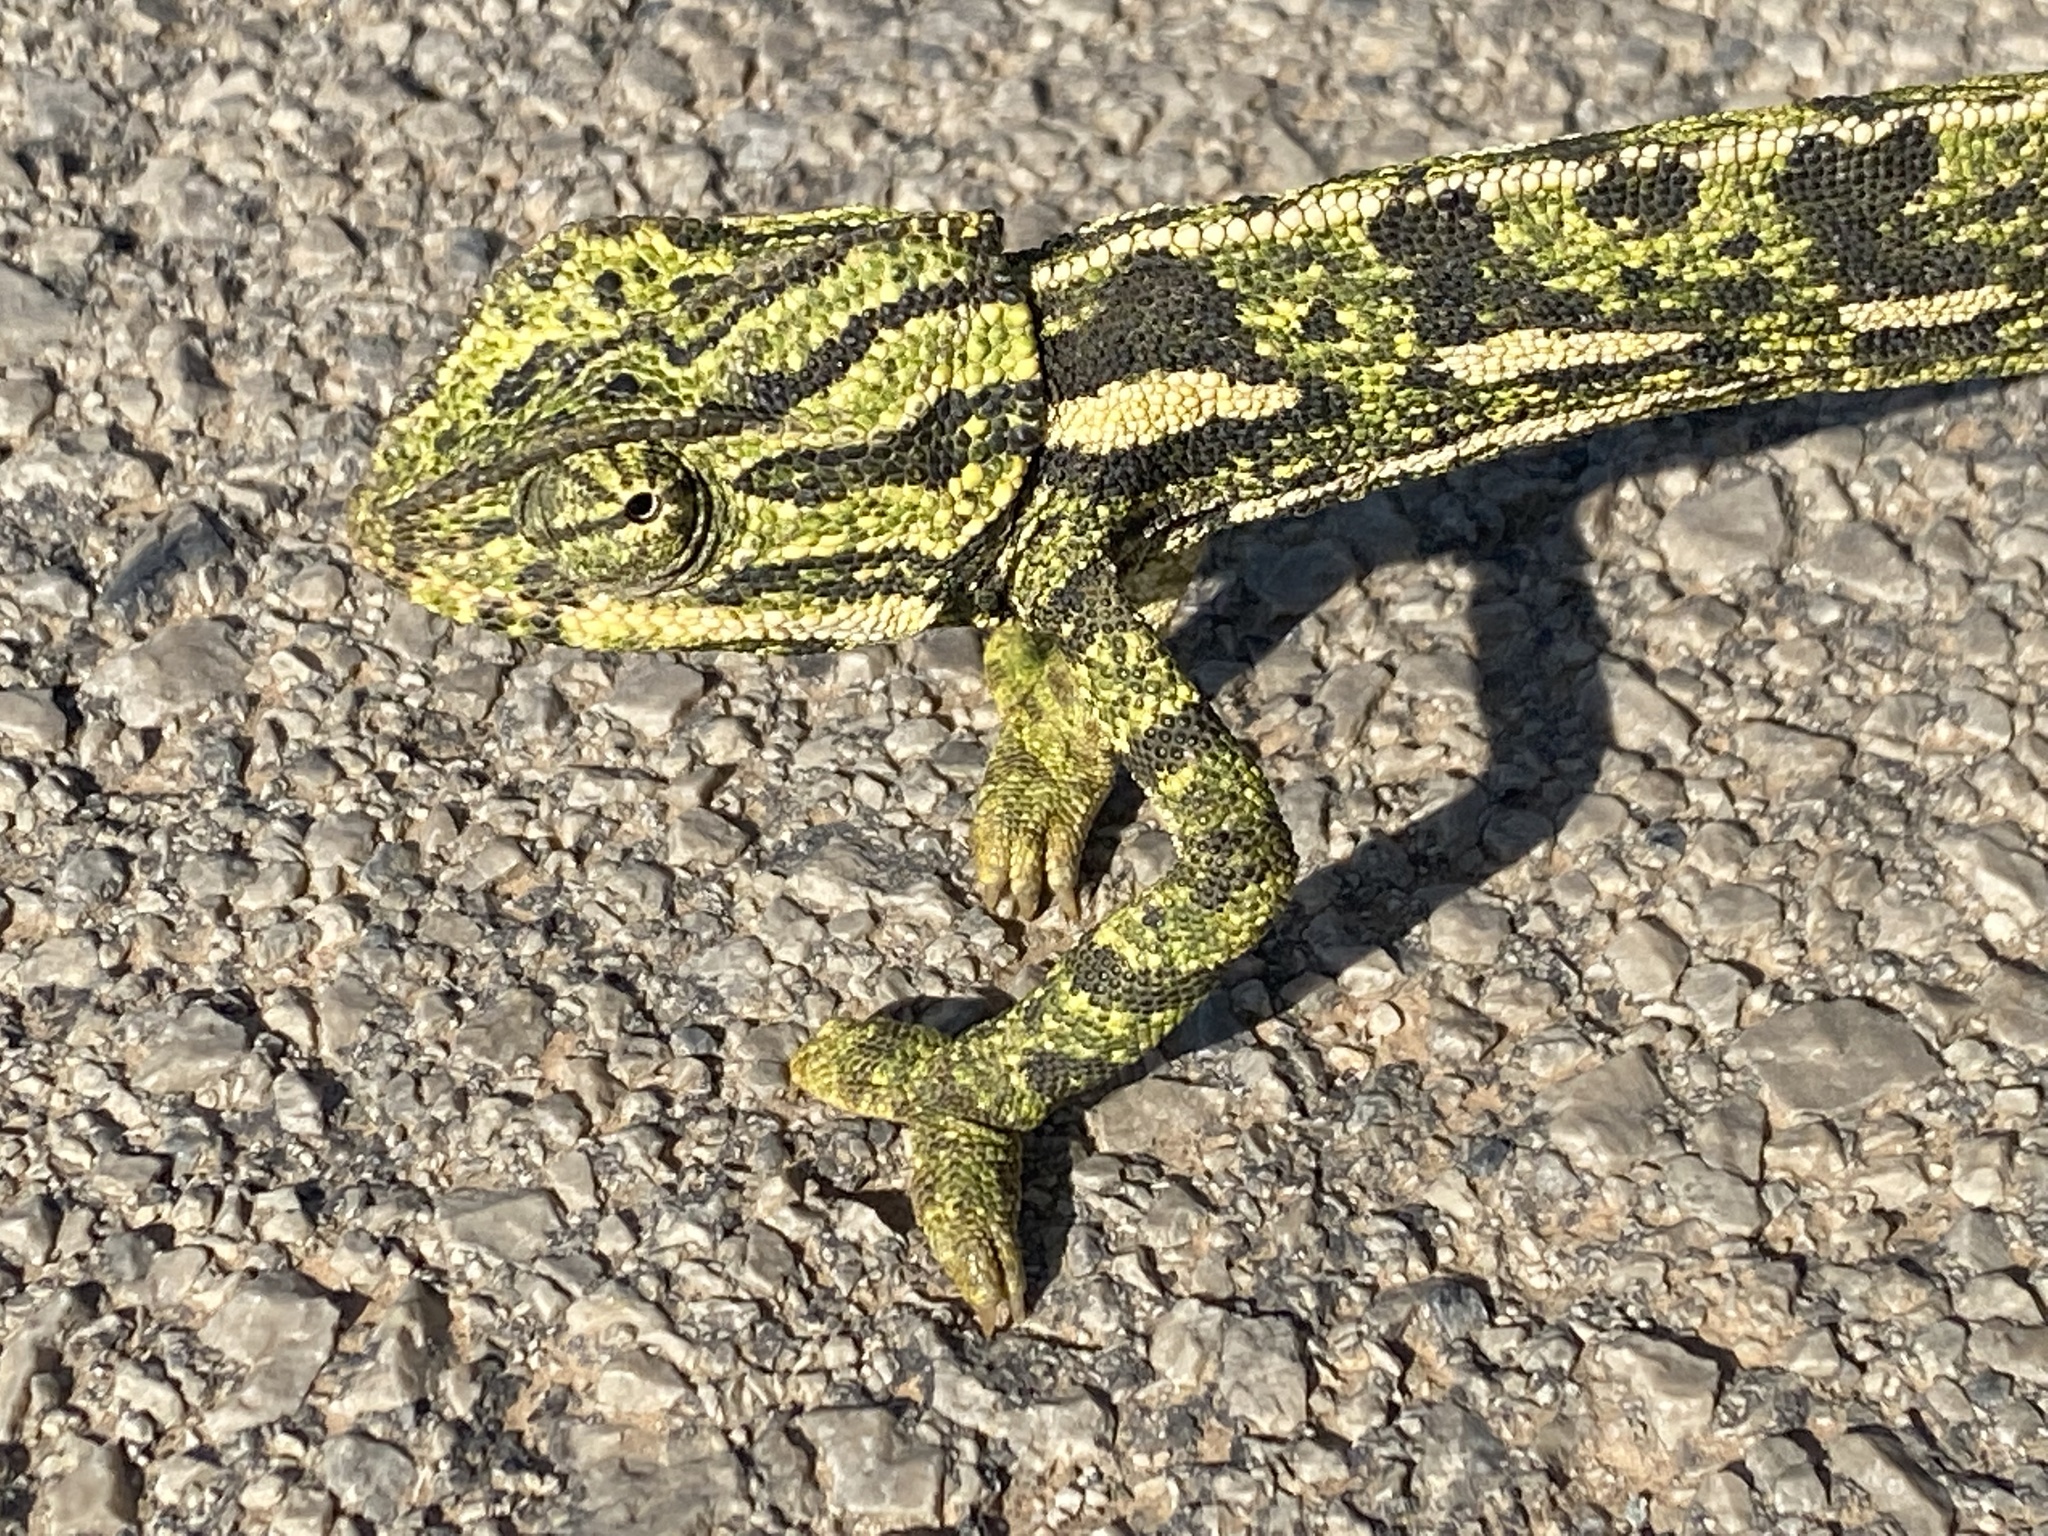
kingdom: Animalia
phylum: Chordata
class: Squamata
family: Chamaeleonidae
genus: Chamaeleo
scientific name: Chamaeleo chamaeleon
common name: Mediterranean chameleon
